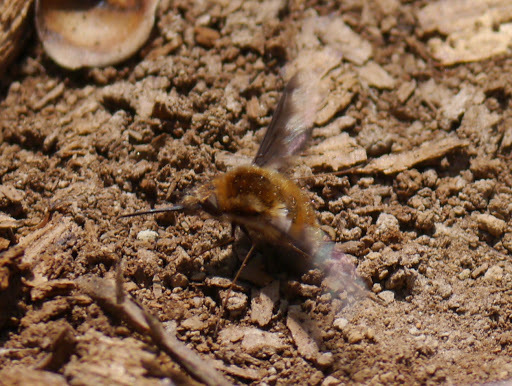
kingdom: Animalia
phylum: Arthropoda
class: Insecta
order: Diptera
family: Bombyliidae
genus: Bombylius
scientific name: Bombylius major
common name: Bee fly
